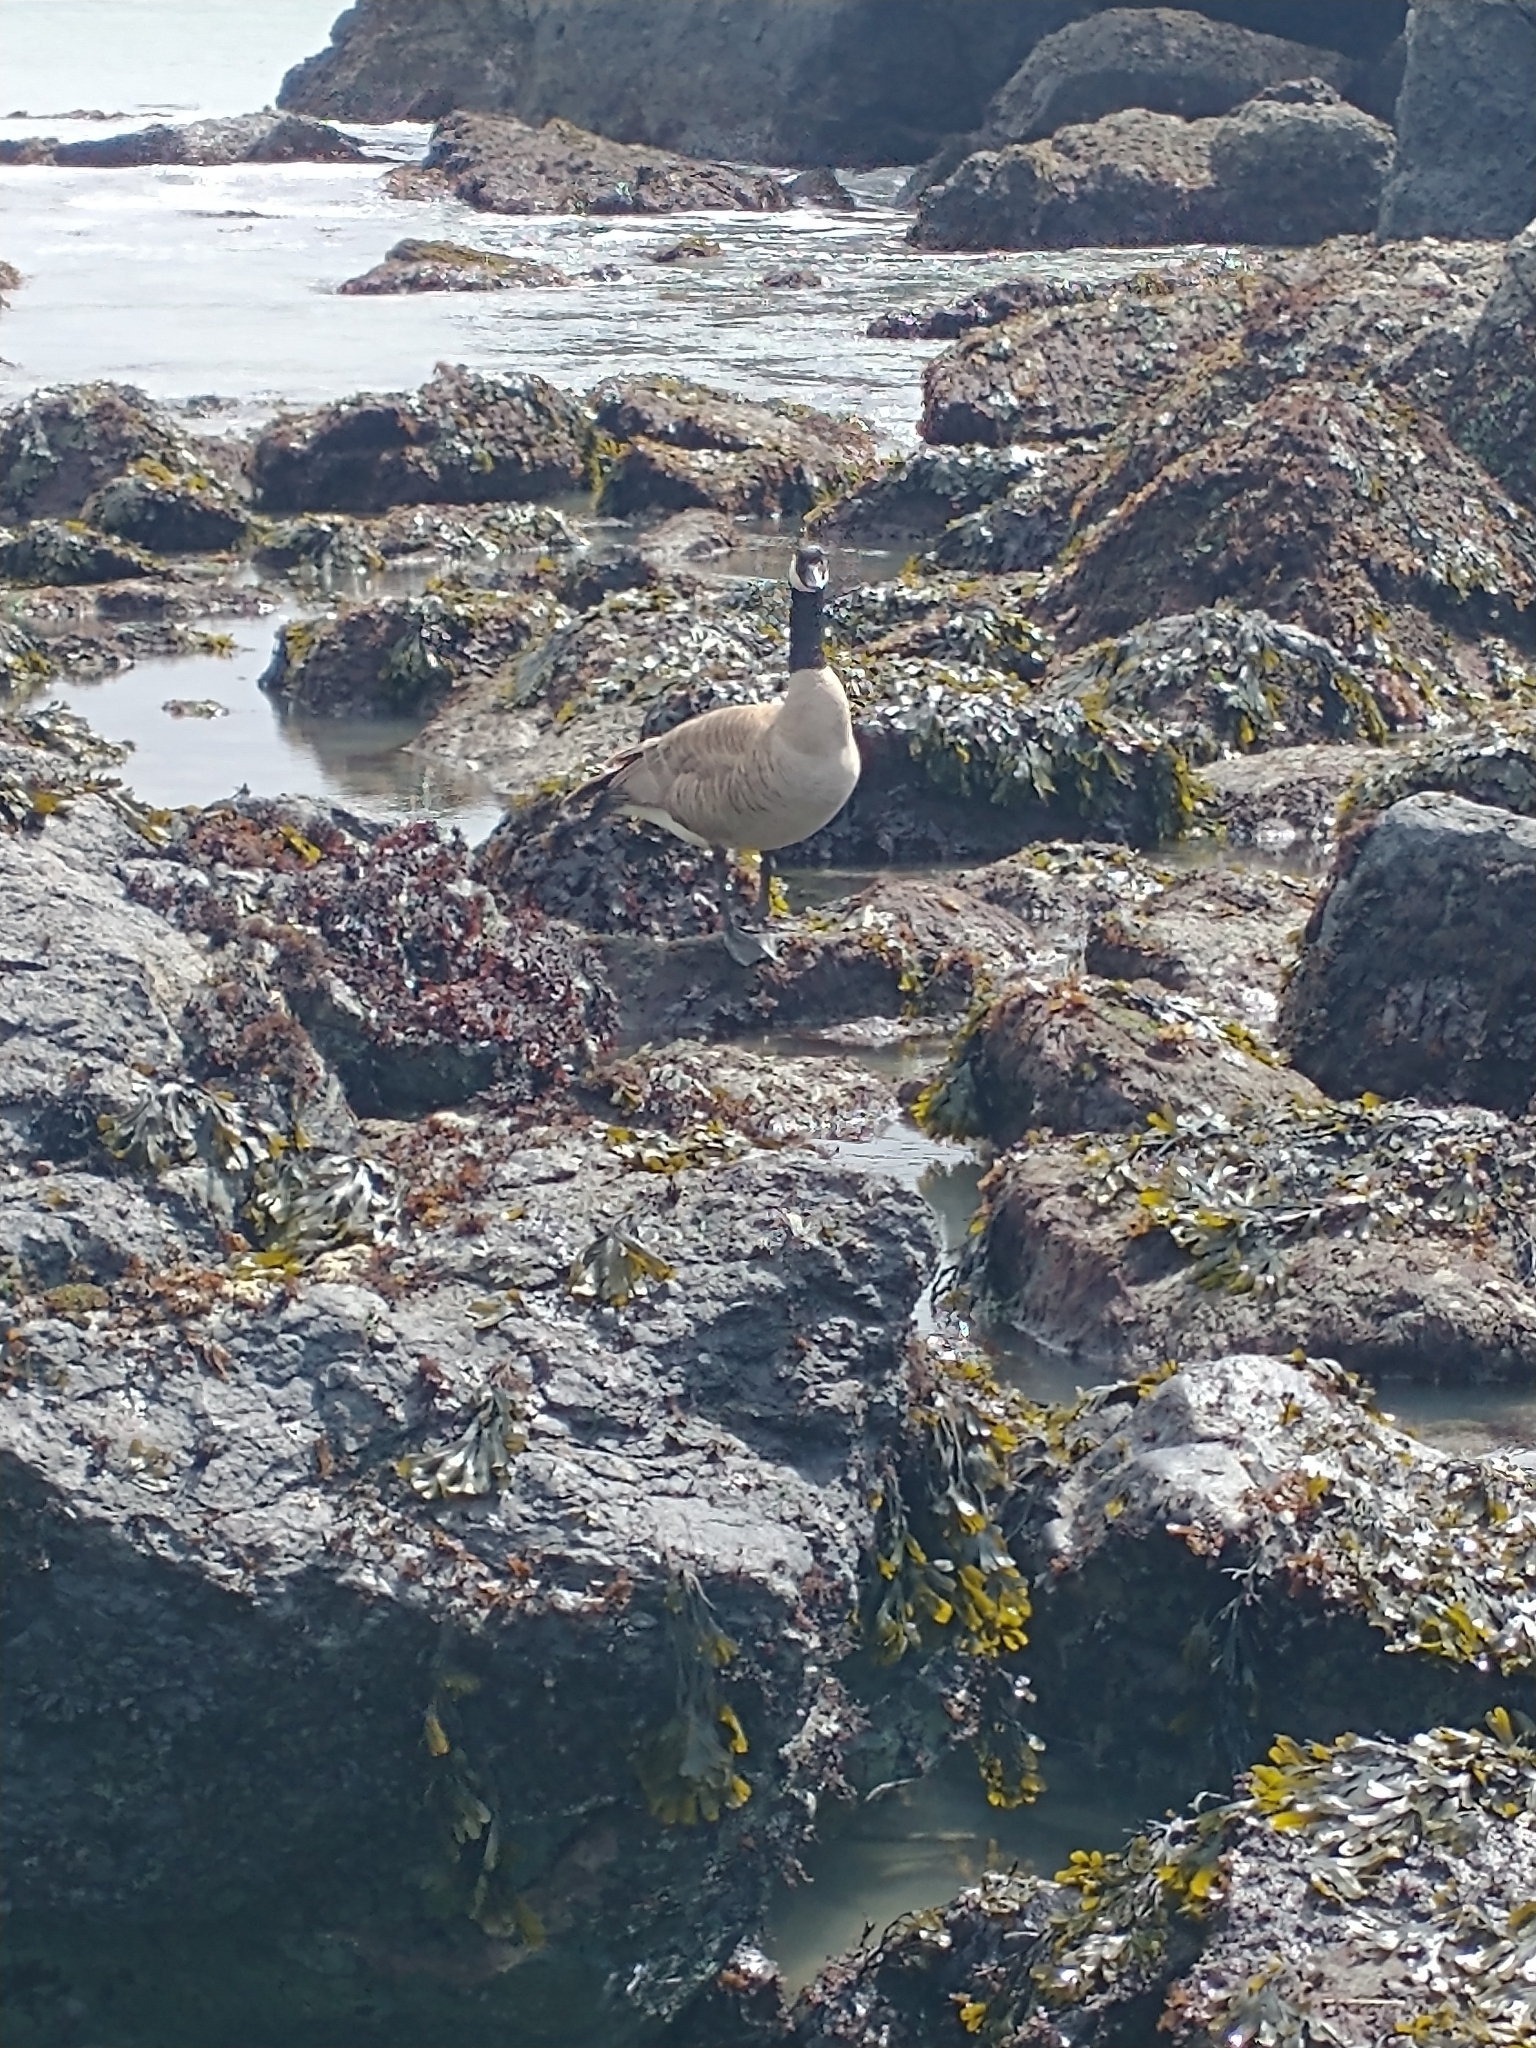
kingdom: Animalia
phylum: Chordata
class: Aves
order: Anseriformes
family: Anatidae
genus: Branta
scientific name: Branta canadensis
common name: Canada goose
